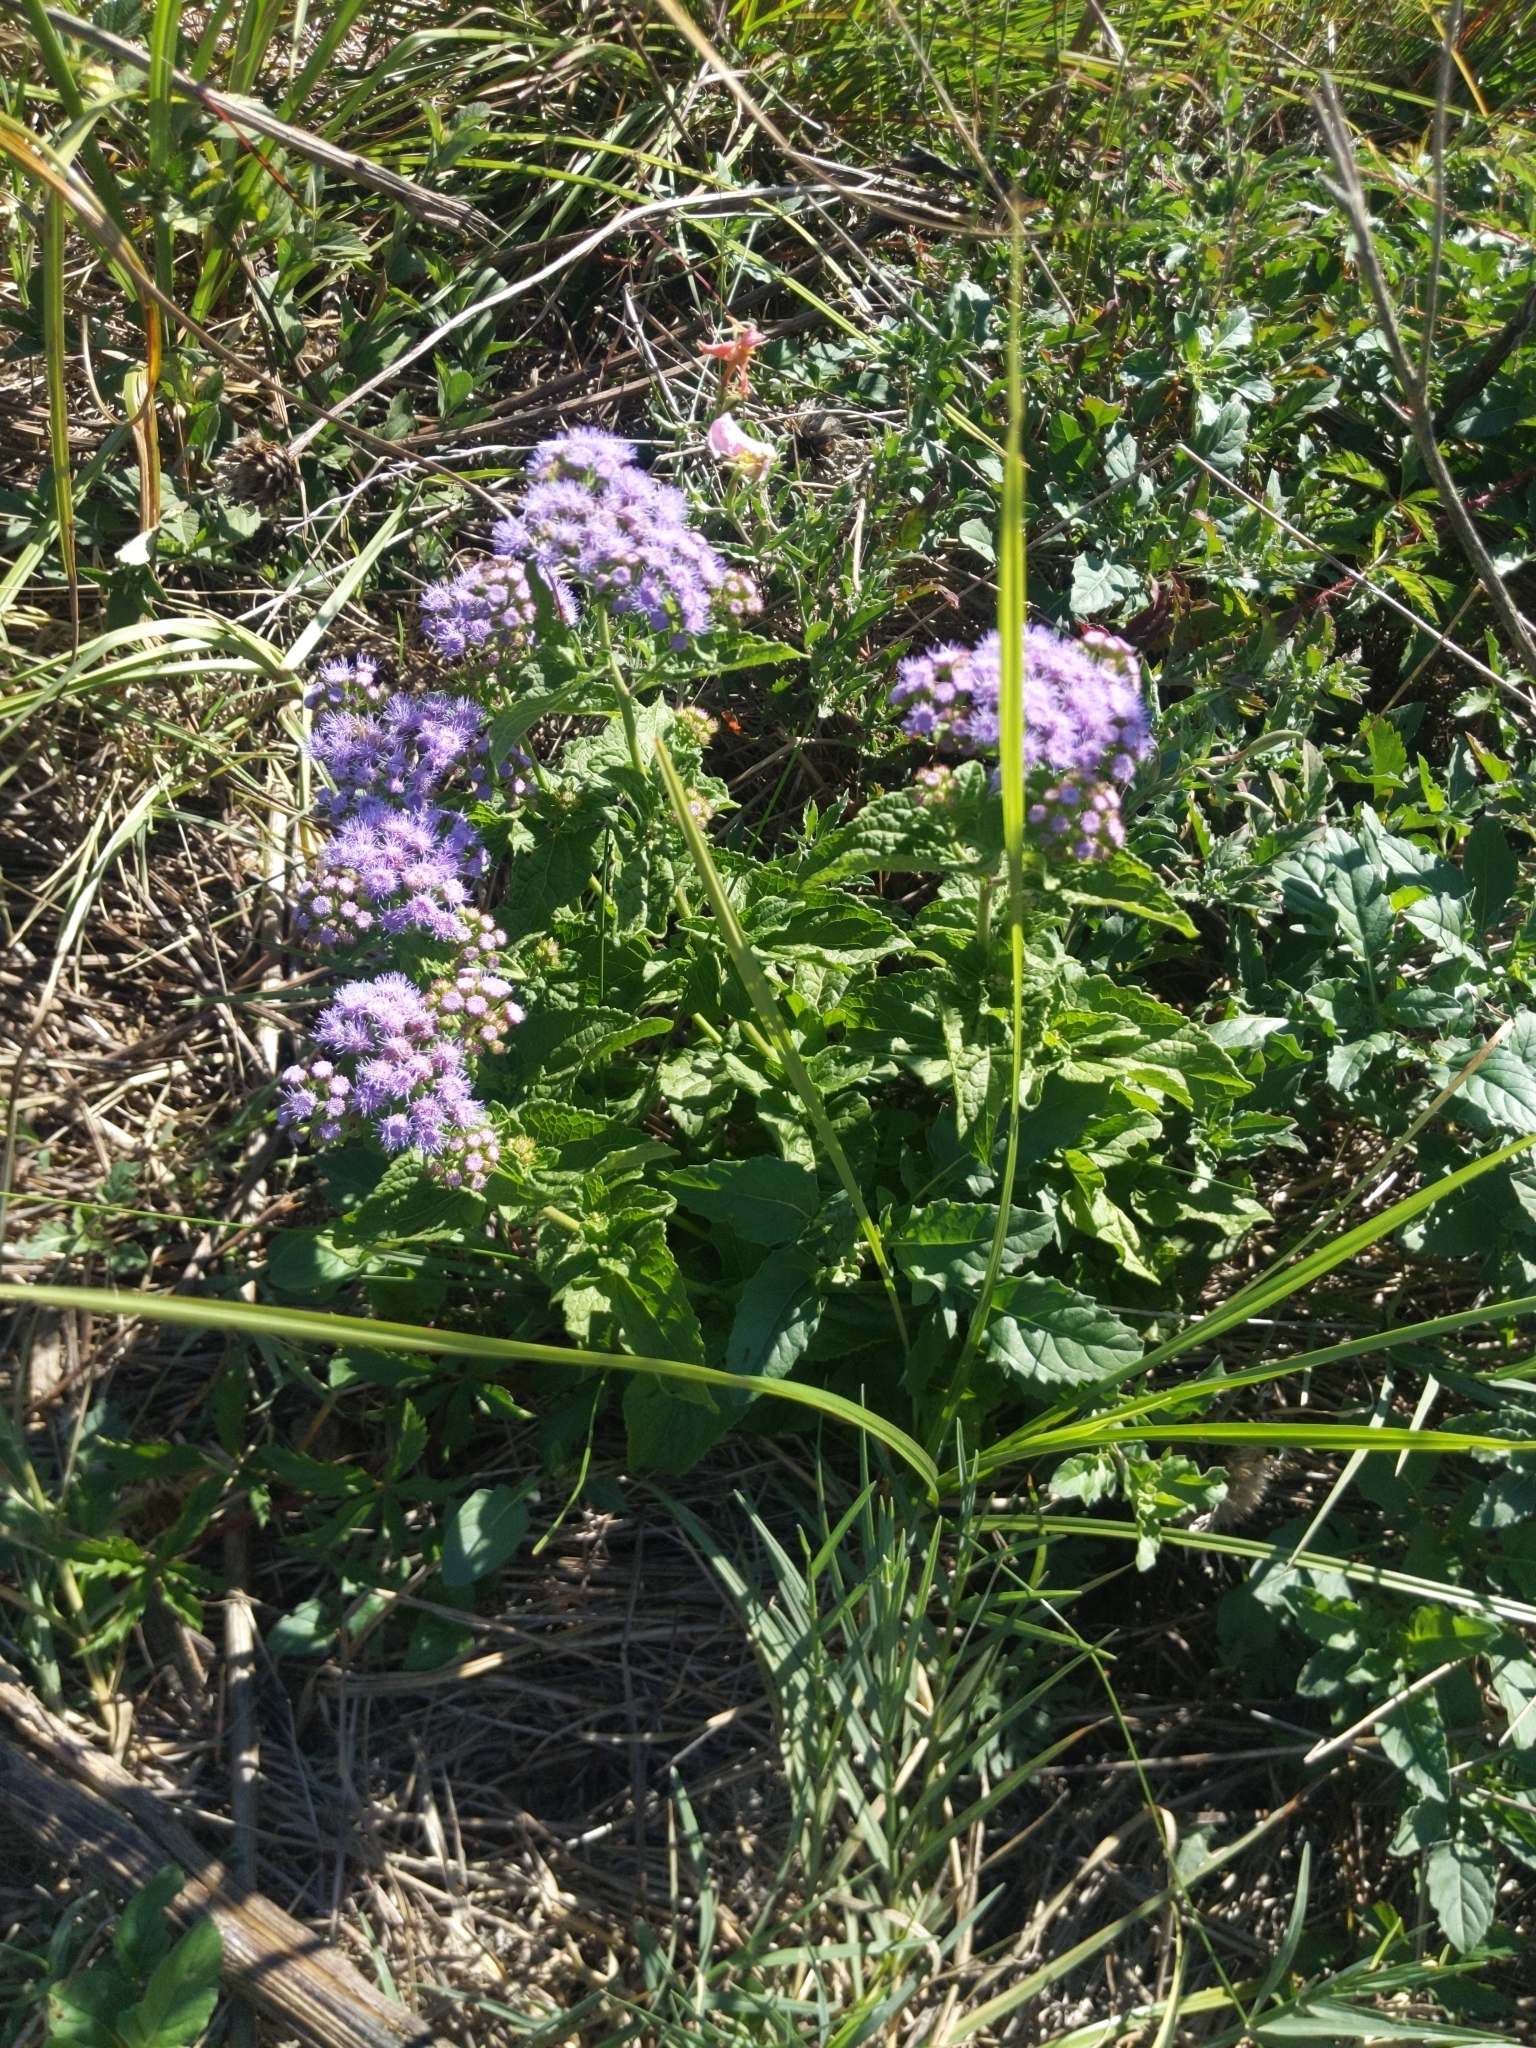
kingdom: Plantae
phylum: Tracheophyta
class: Magnoliopsida
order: Asterales
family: Asteraceae
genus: Conoclinium
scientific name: Conoclinium coelestinum
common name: Blue mistflower
